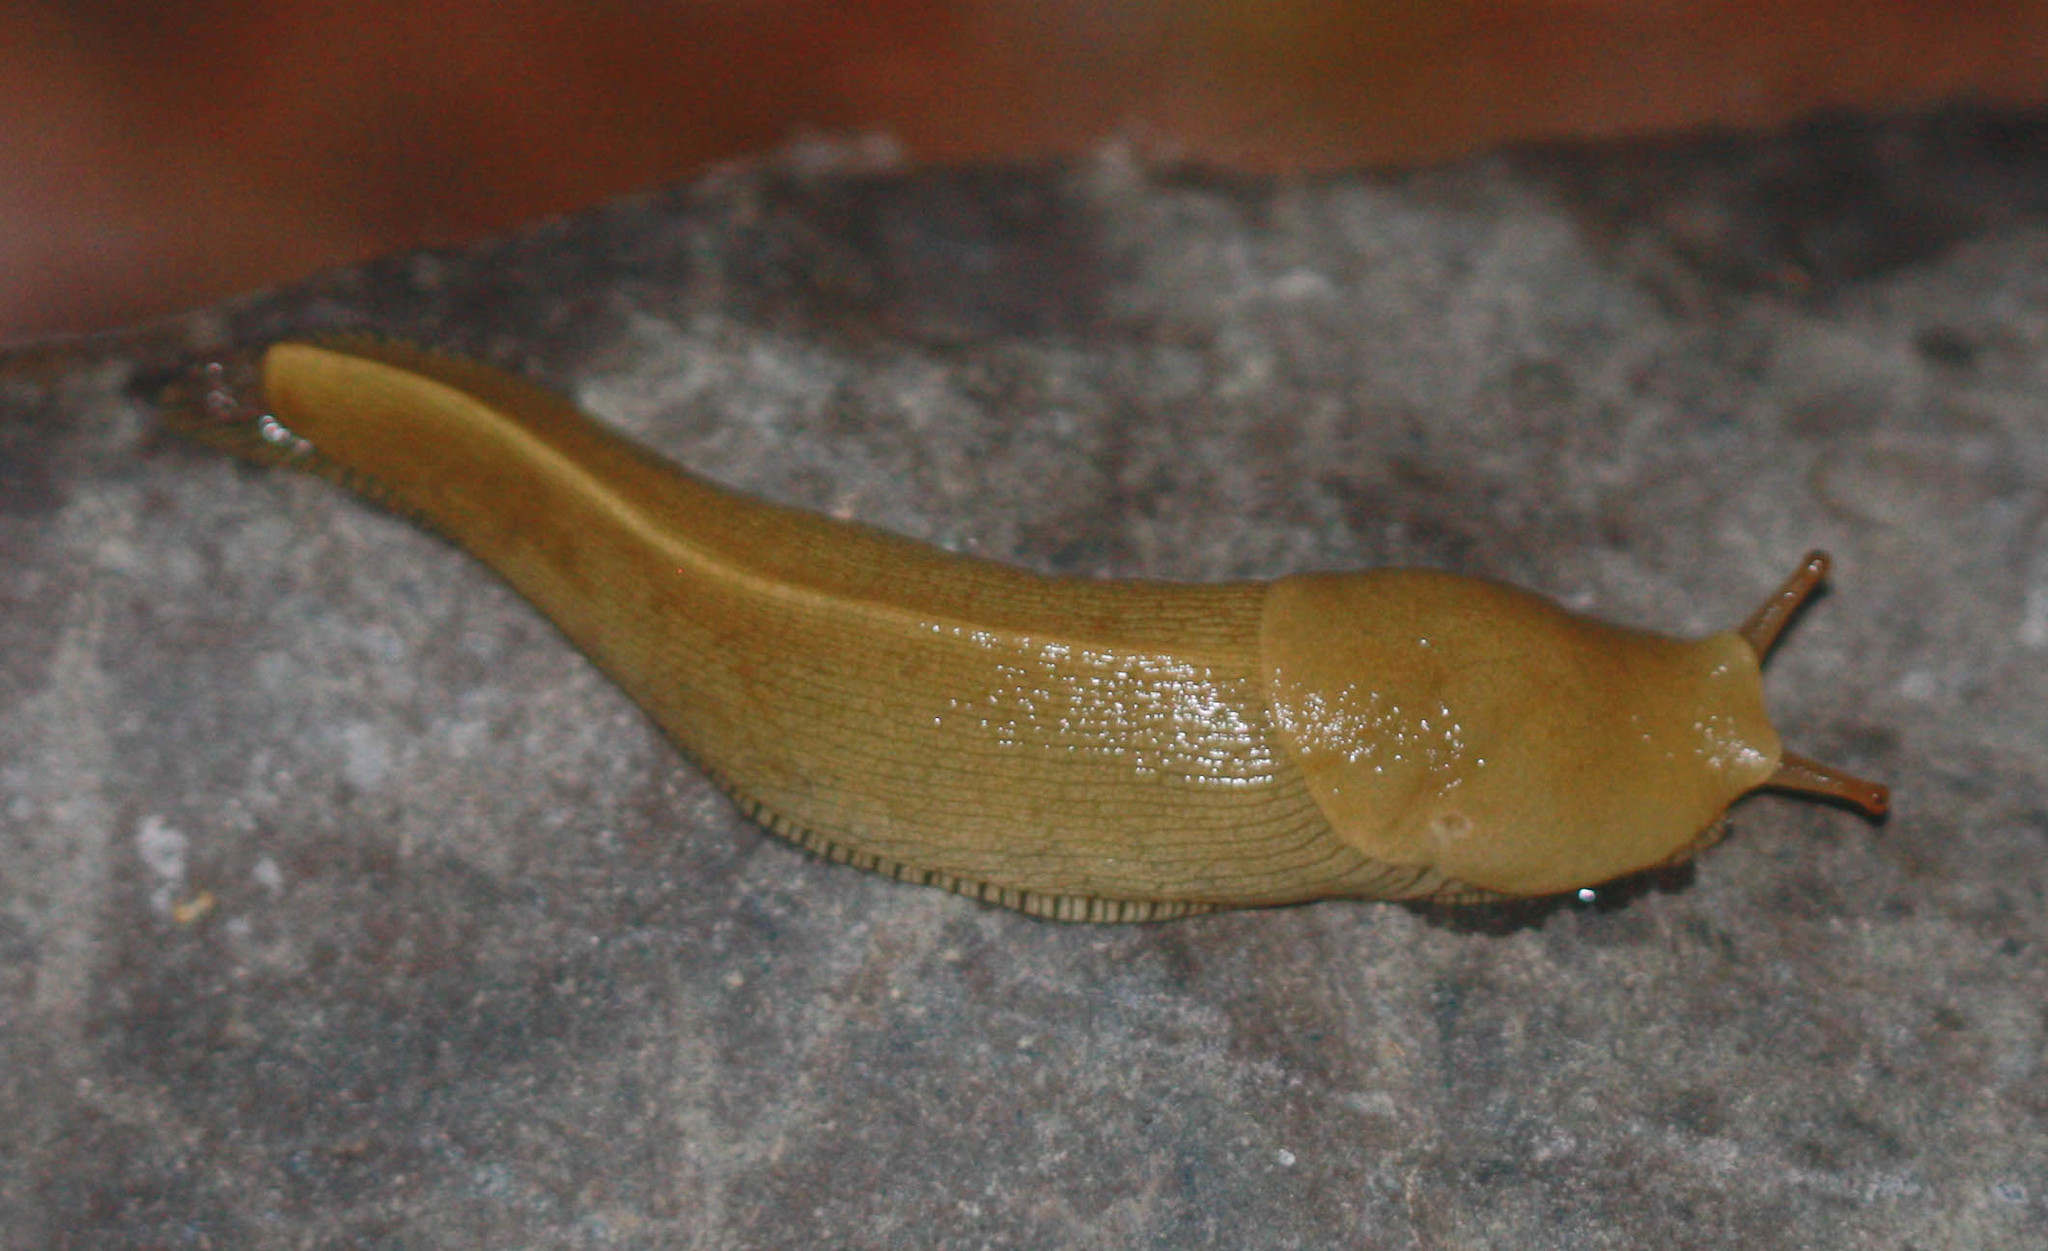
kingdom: Animalia
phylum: Mollusca
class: Gastropoda
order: Stylommatophora
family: Ariolimacidae
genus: Ariolimax
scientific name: Ariolimax buttoni
